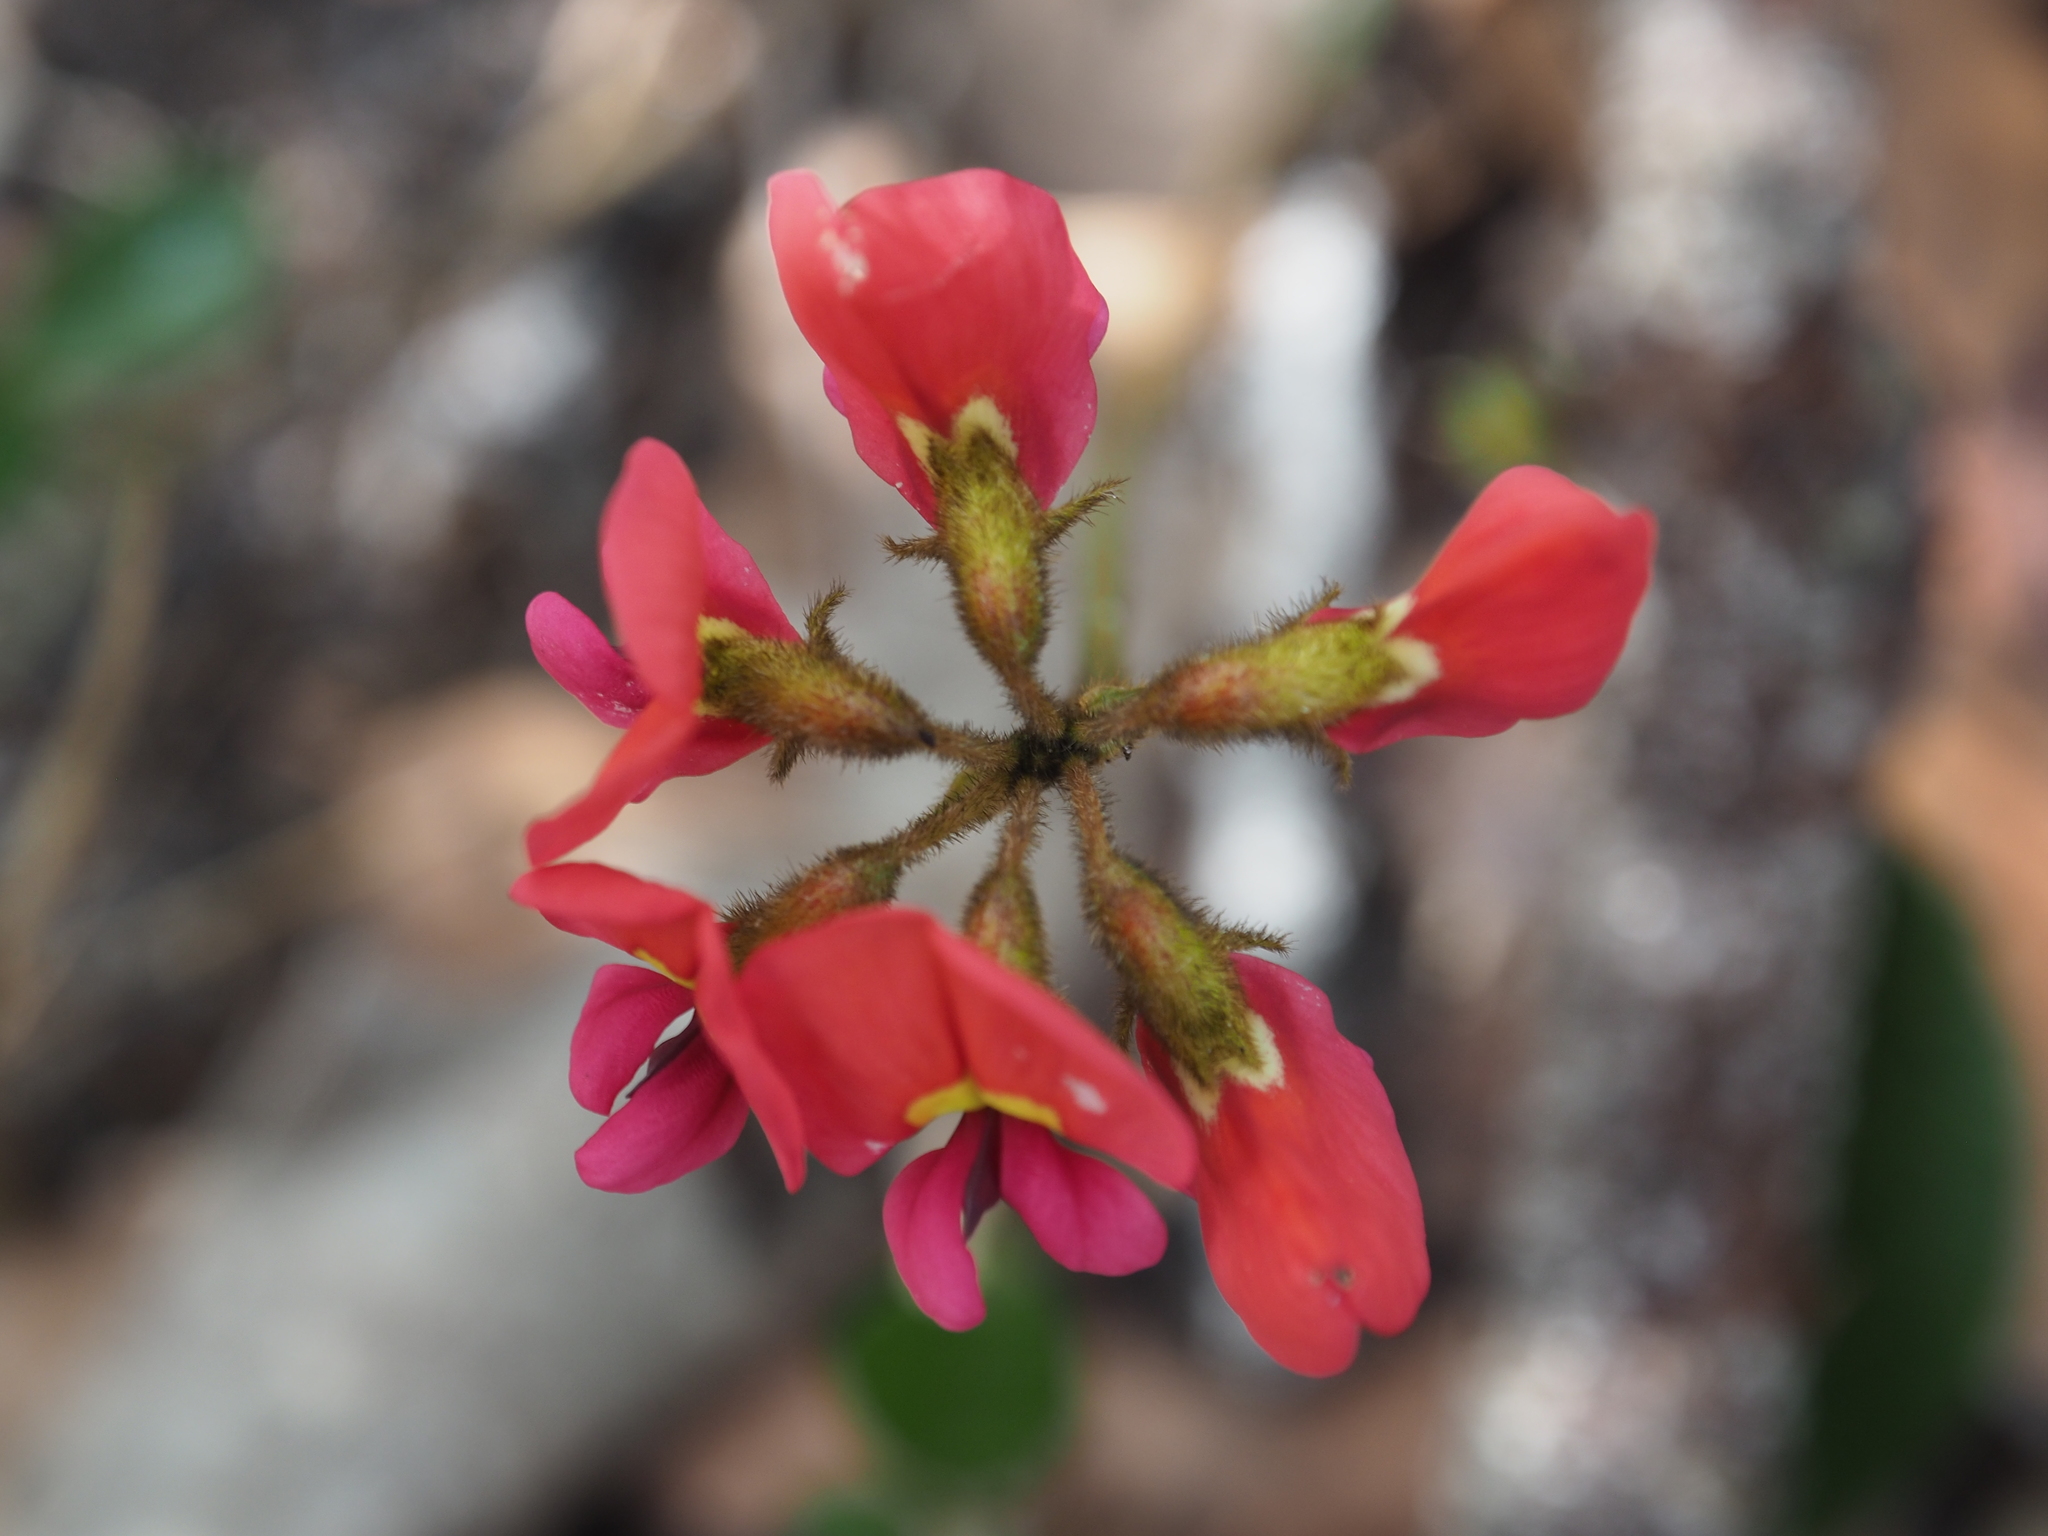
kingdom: Plantae
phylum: Tracheophyta
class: Magnoliopsida
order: Fabales
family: Fabaceae
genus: Kennedia
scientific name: Kennedia coccinea
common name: Coralvine
